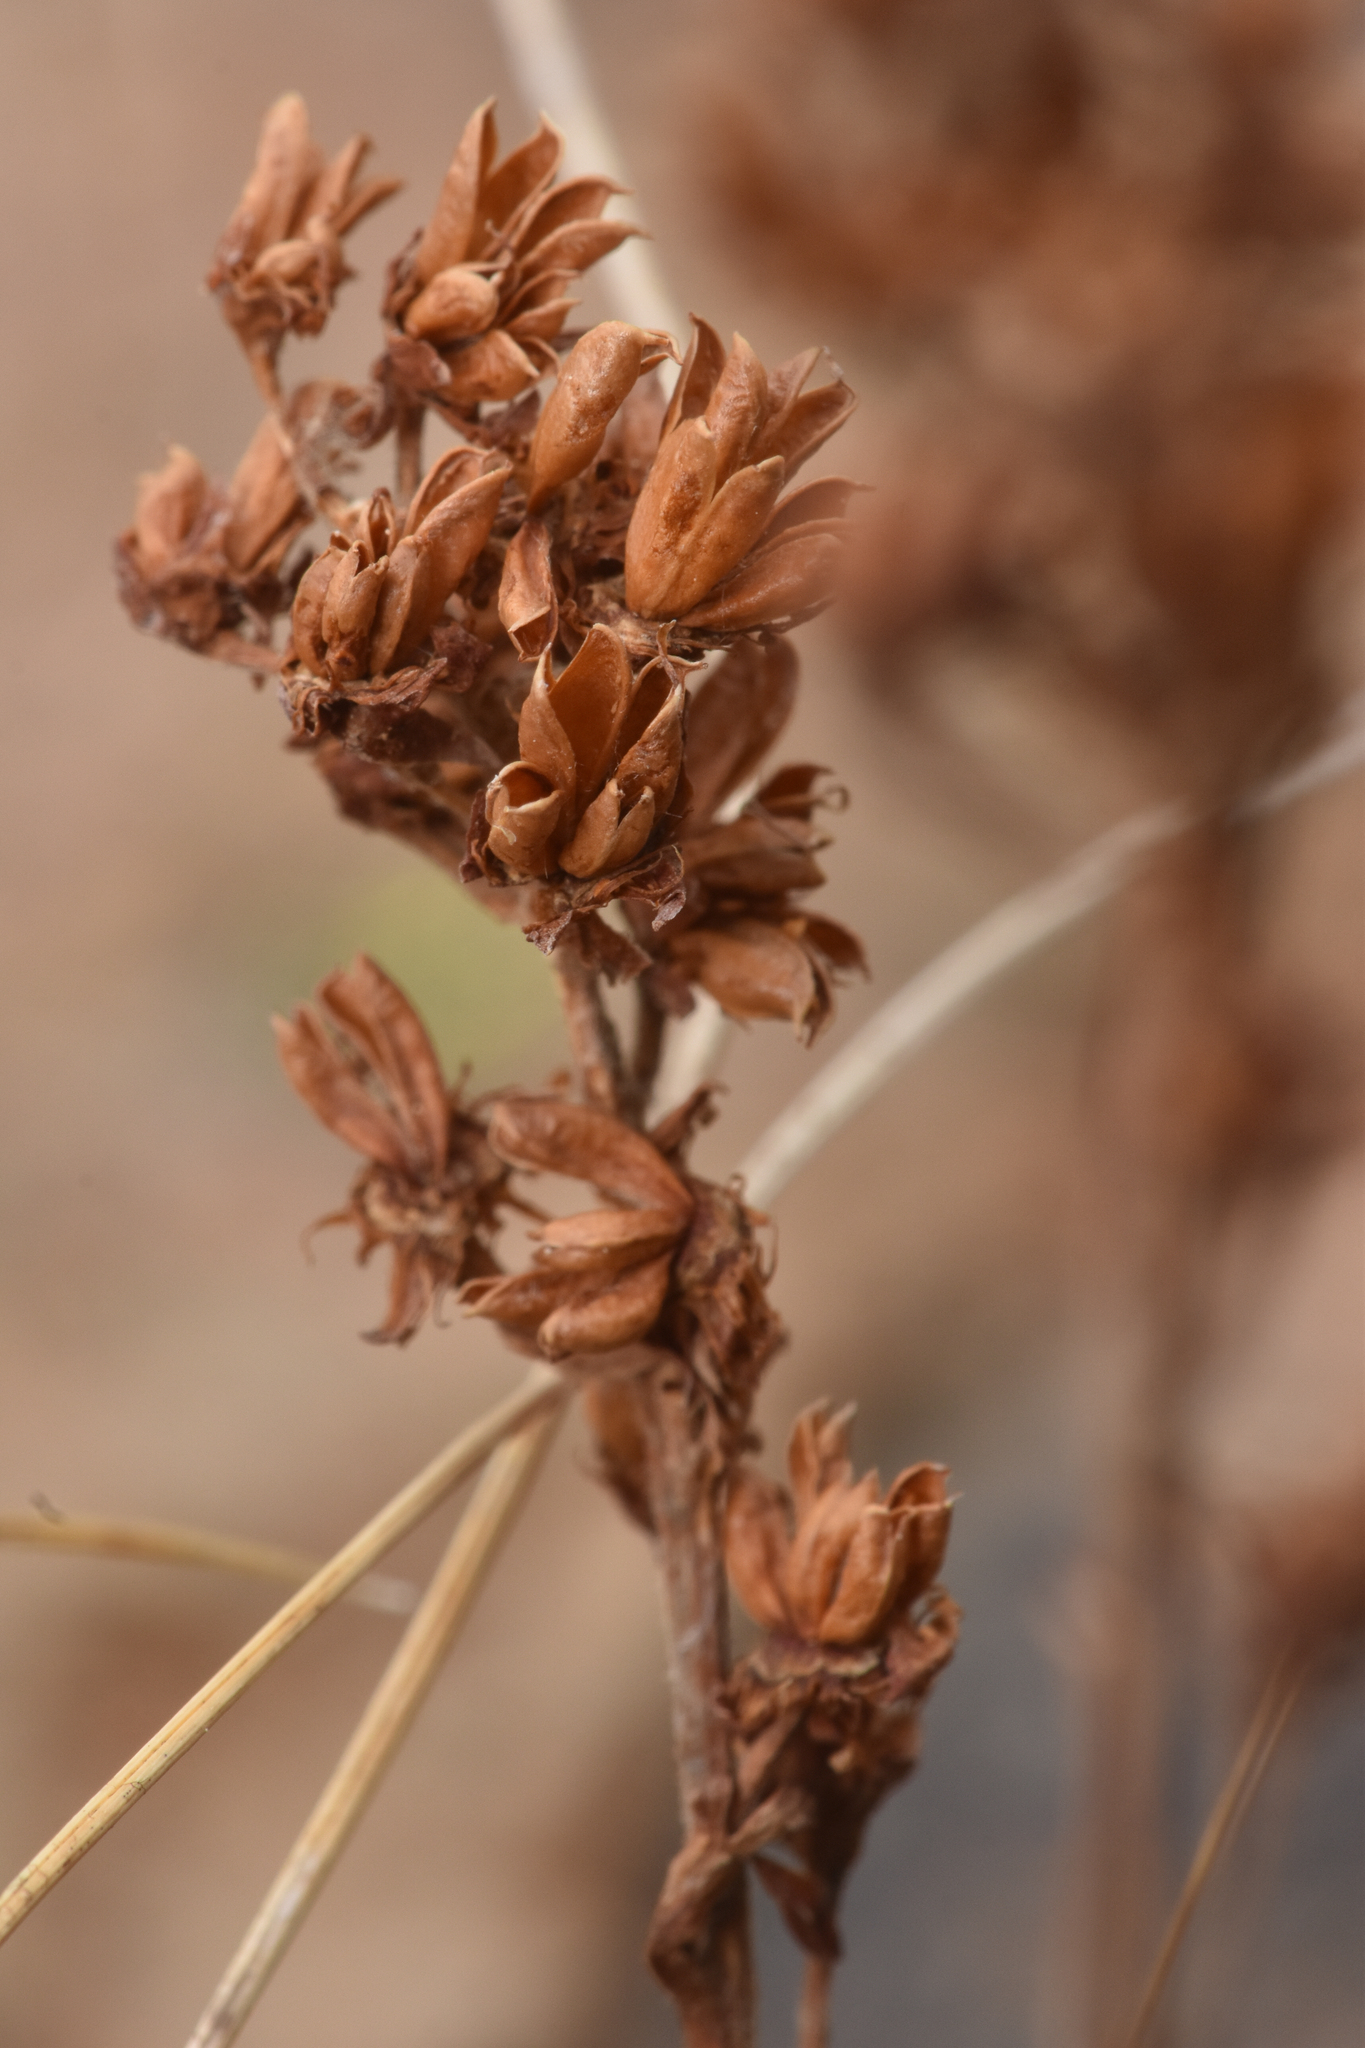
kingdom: Plantae
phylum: Tracheophyta
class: Magnoliopsida
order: Rosales
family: Rosaceae
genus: Luetkea
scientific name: Luetkea pectinata
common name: Partridgefoot
